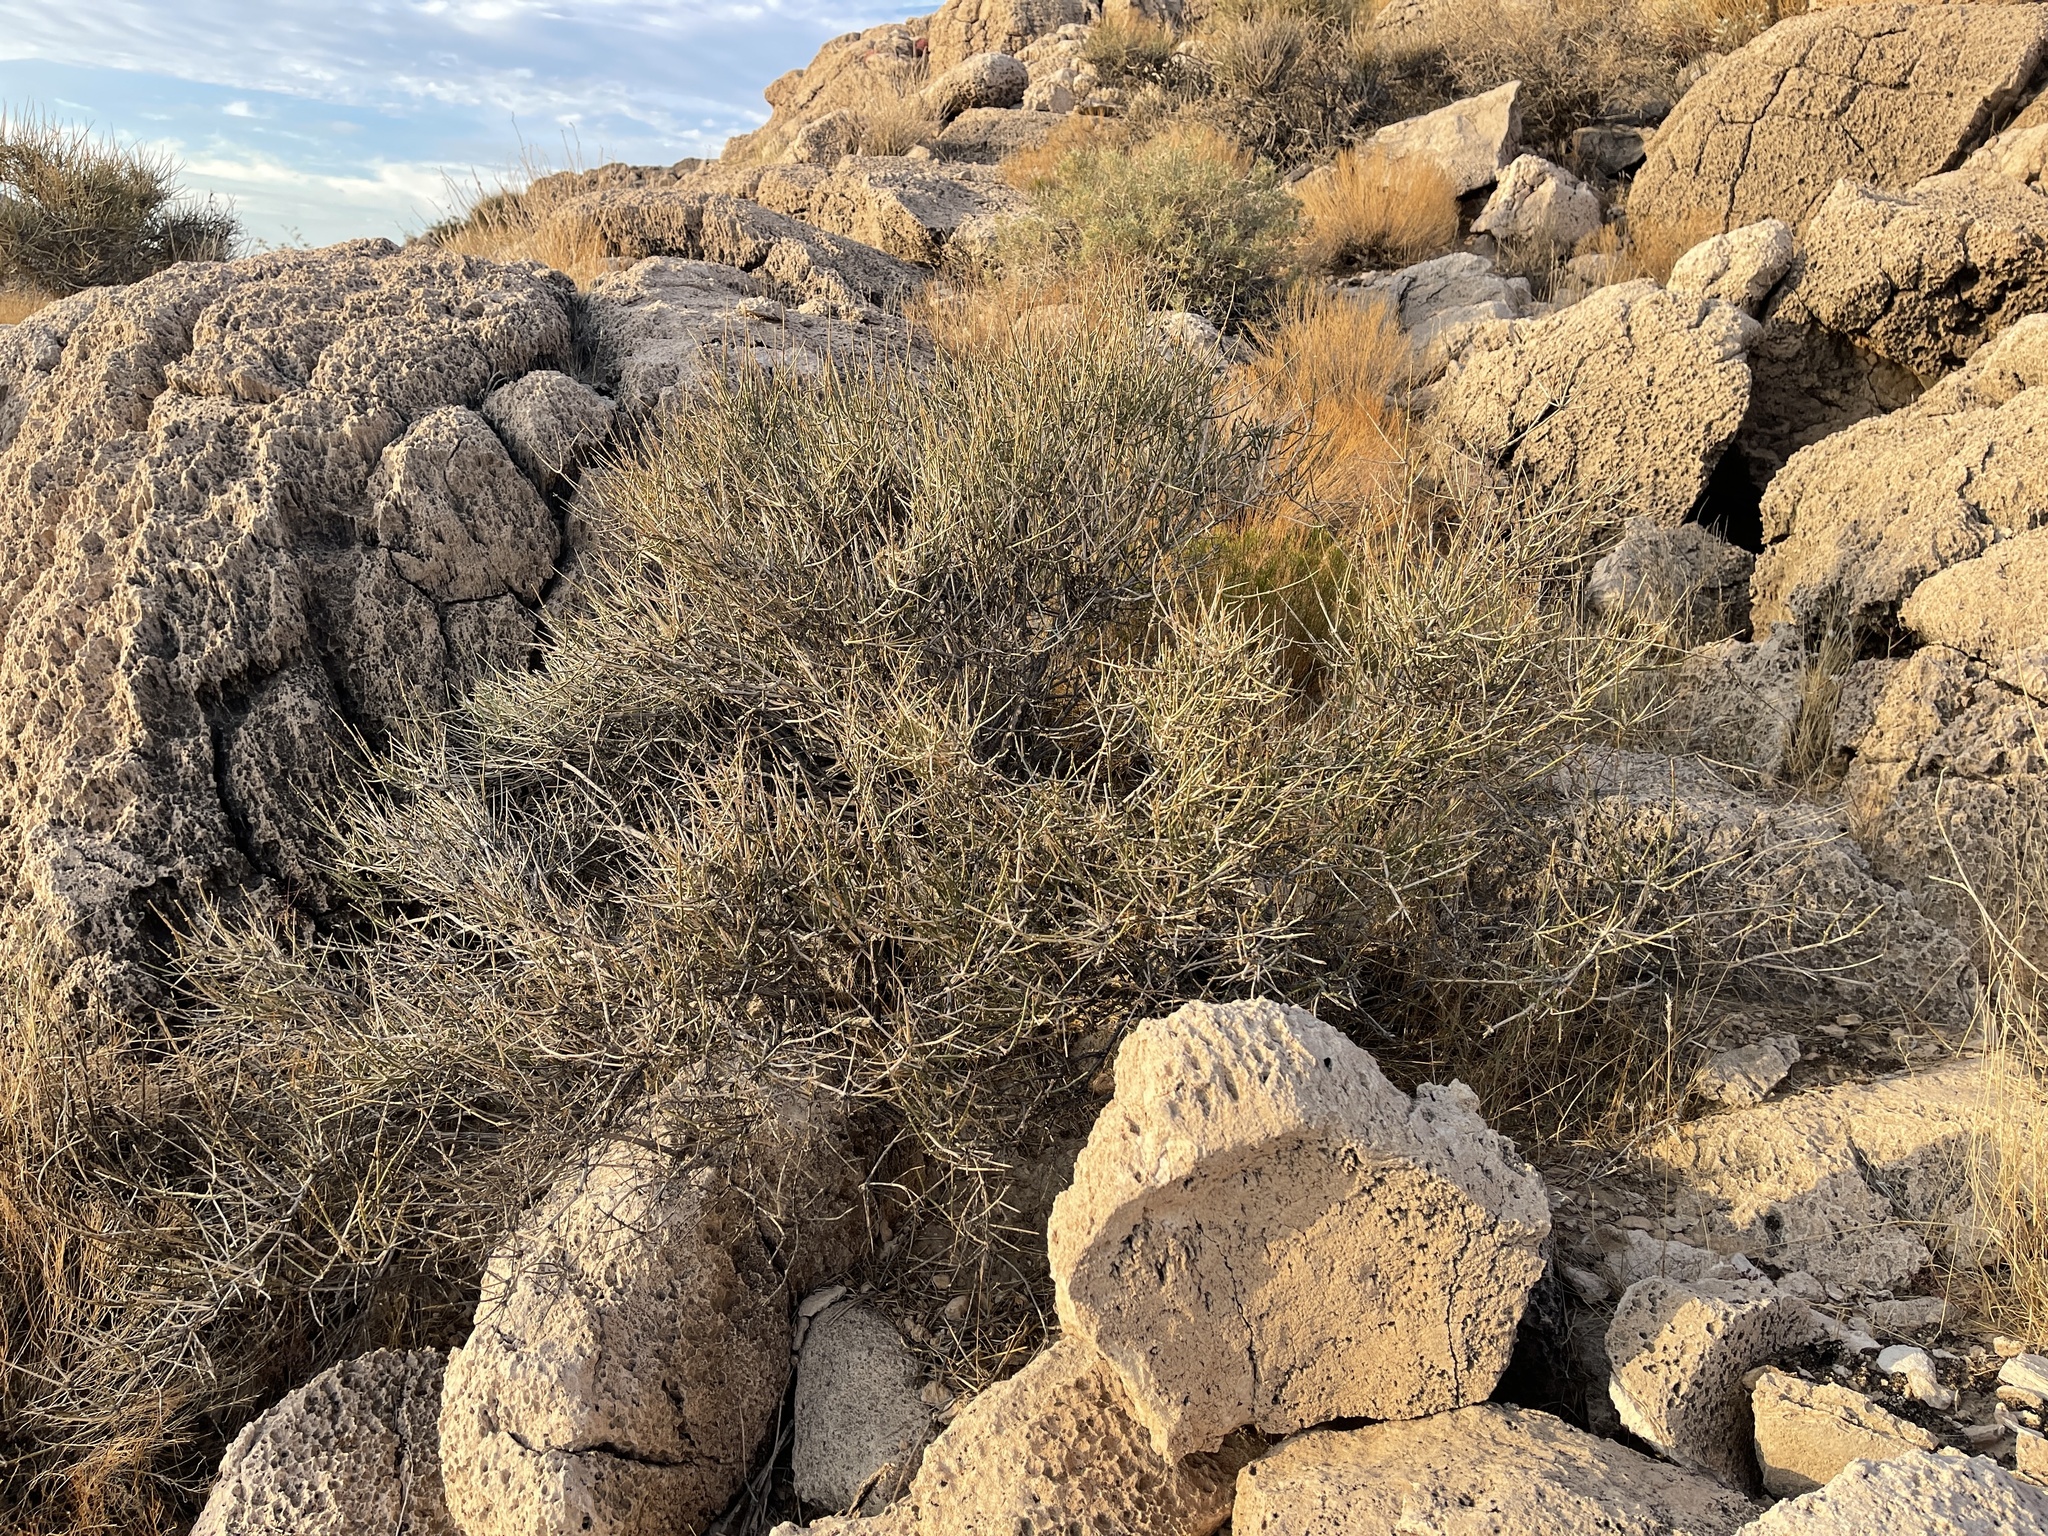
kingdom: Plantae
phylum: Tracheophyta
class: Gnetopsida
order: Ephedrales
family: Ephedraceae
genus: Ephedra
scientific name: Ephedra nevadensis
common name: Gray ephedra
